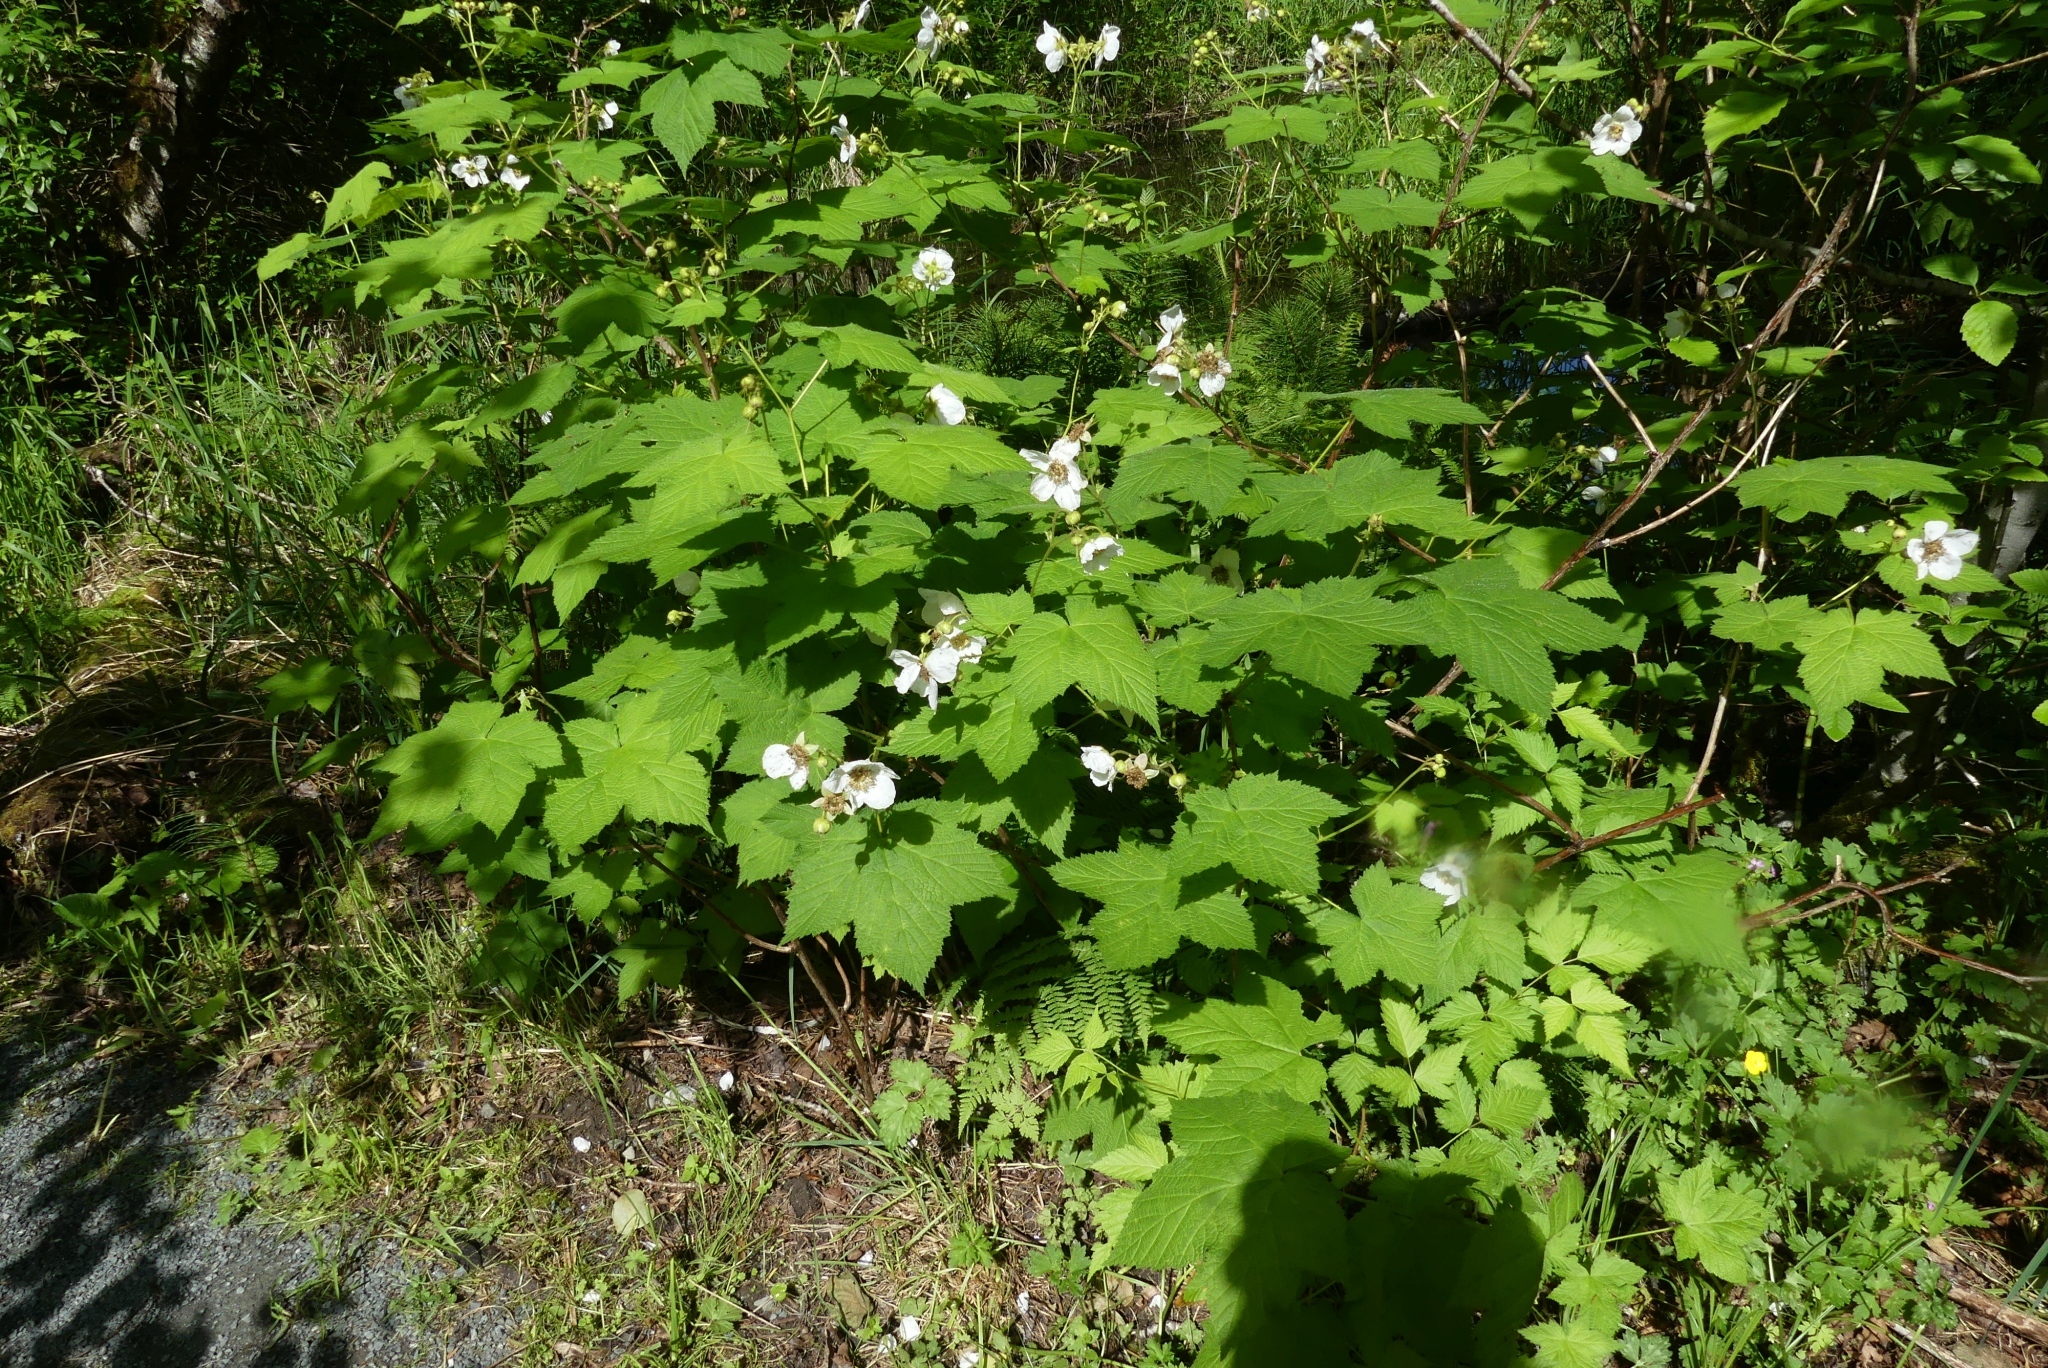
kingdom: Plantae
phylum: Tracheophyta
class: Magnoliopsida
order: Rosales
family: Rosaceae
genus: Rubus
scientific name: Rubus parviflorus
